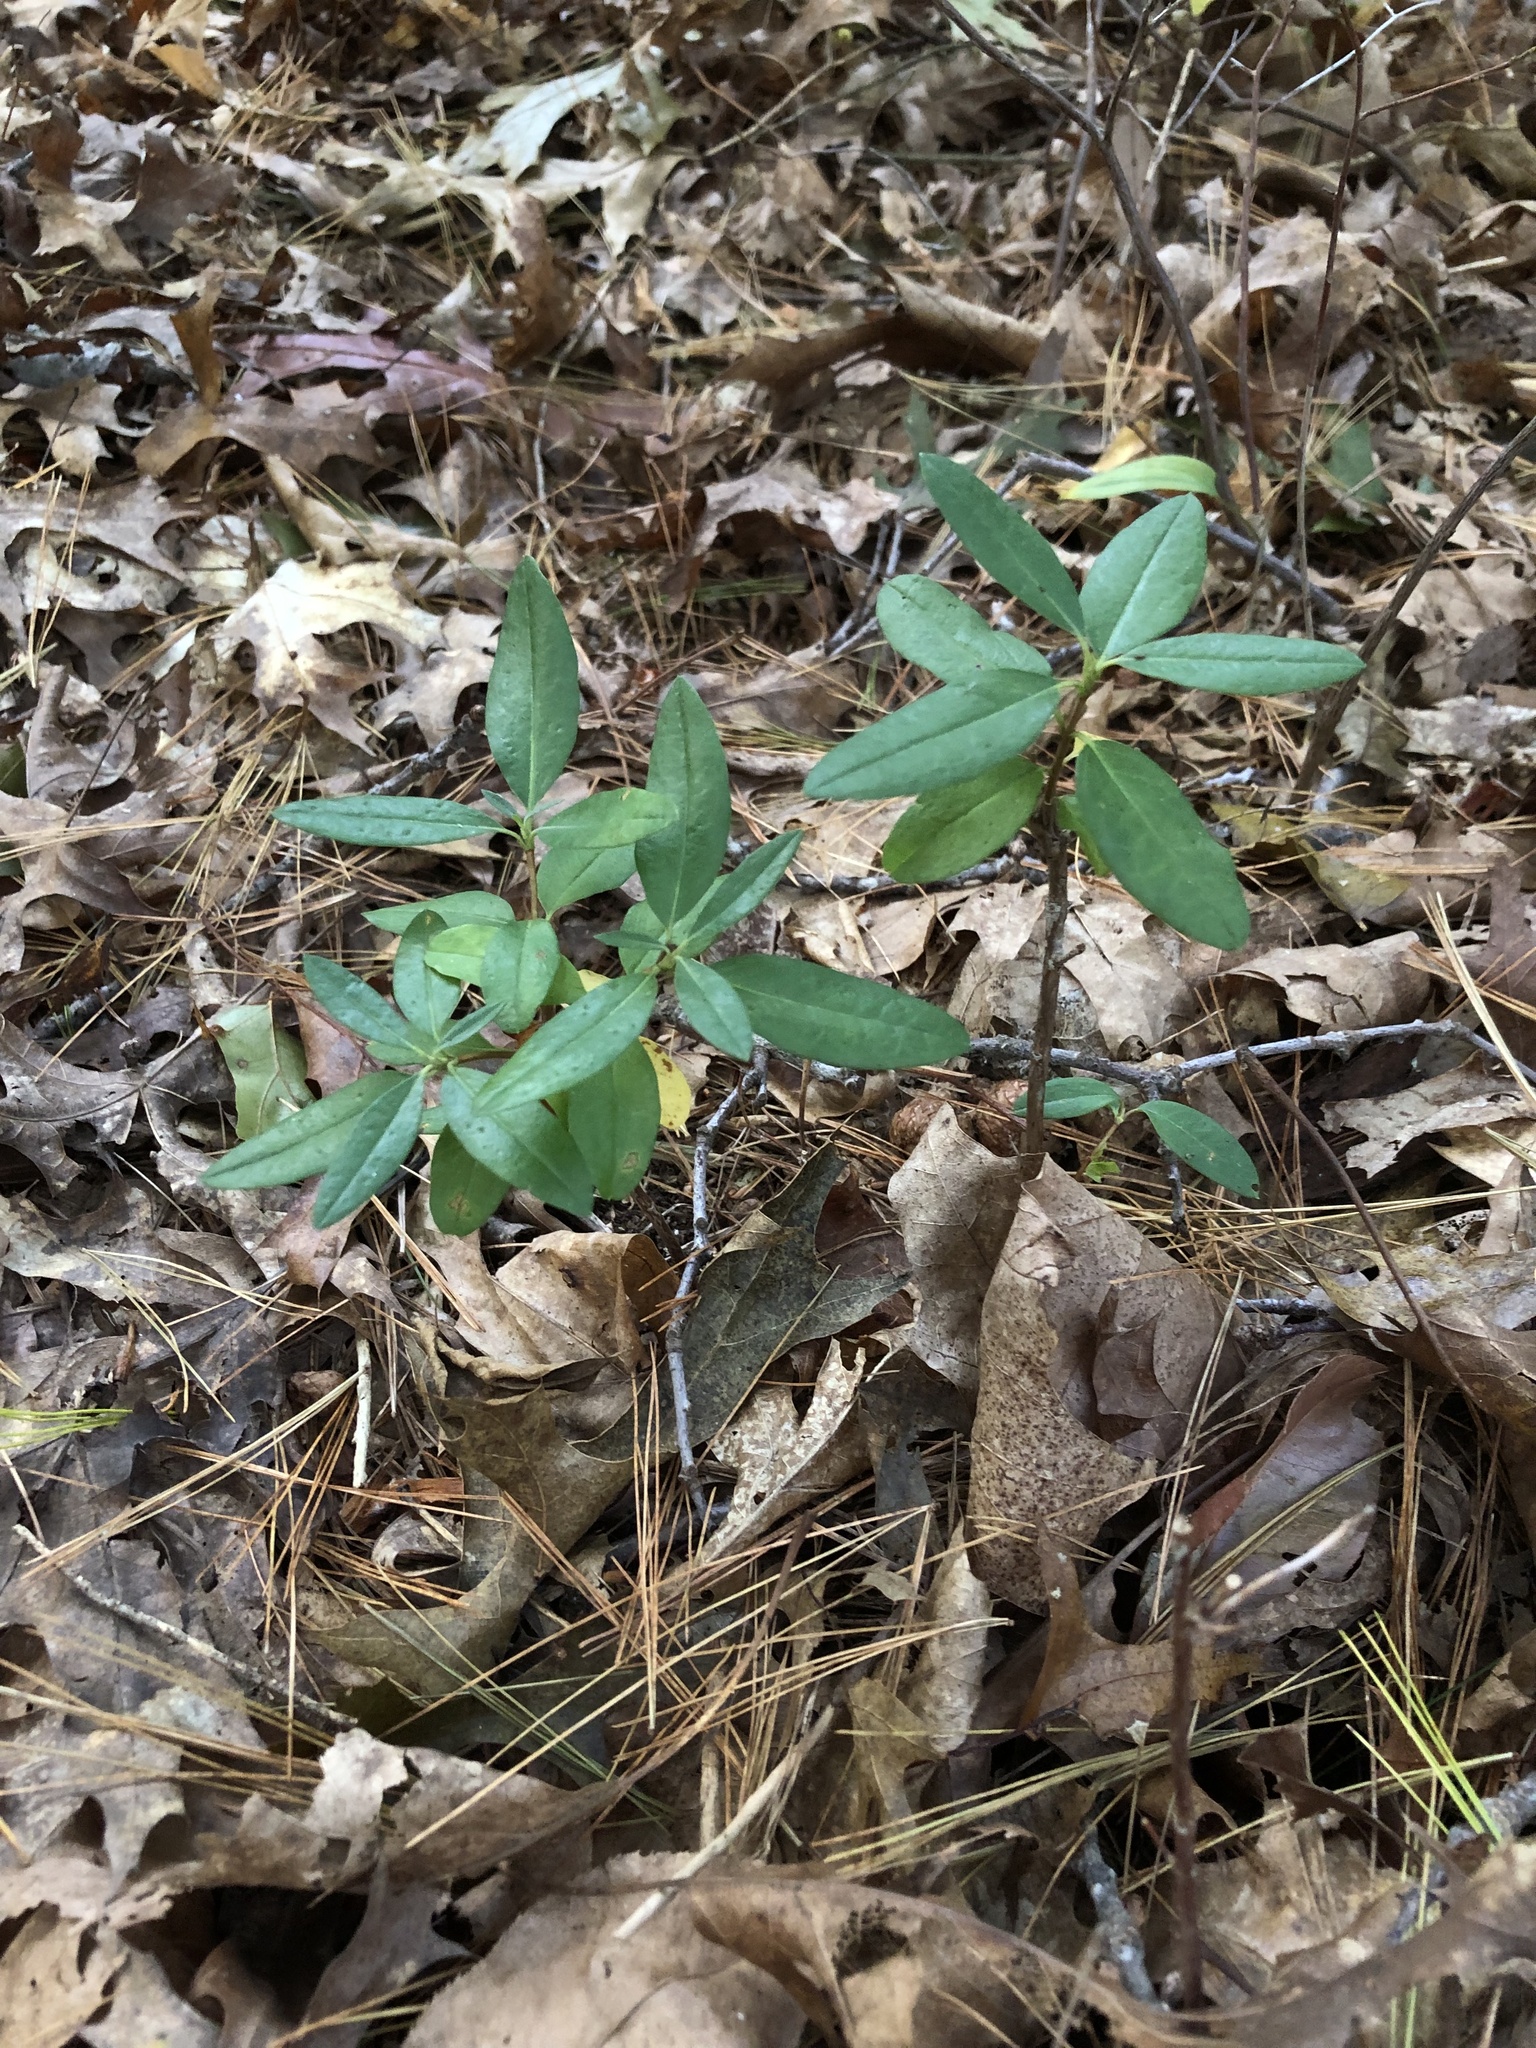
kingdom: Plantae
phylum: Tracheophyta
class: Magnoliopsida
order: Ericales
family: Ericaceae
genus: Kalmia
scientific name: Kalmia angustifolia
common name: Sheep-laurel
